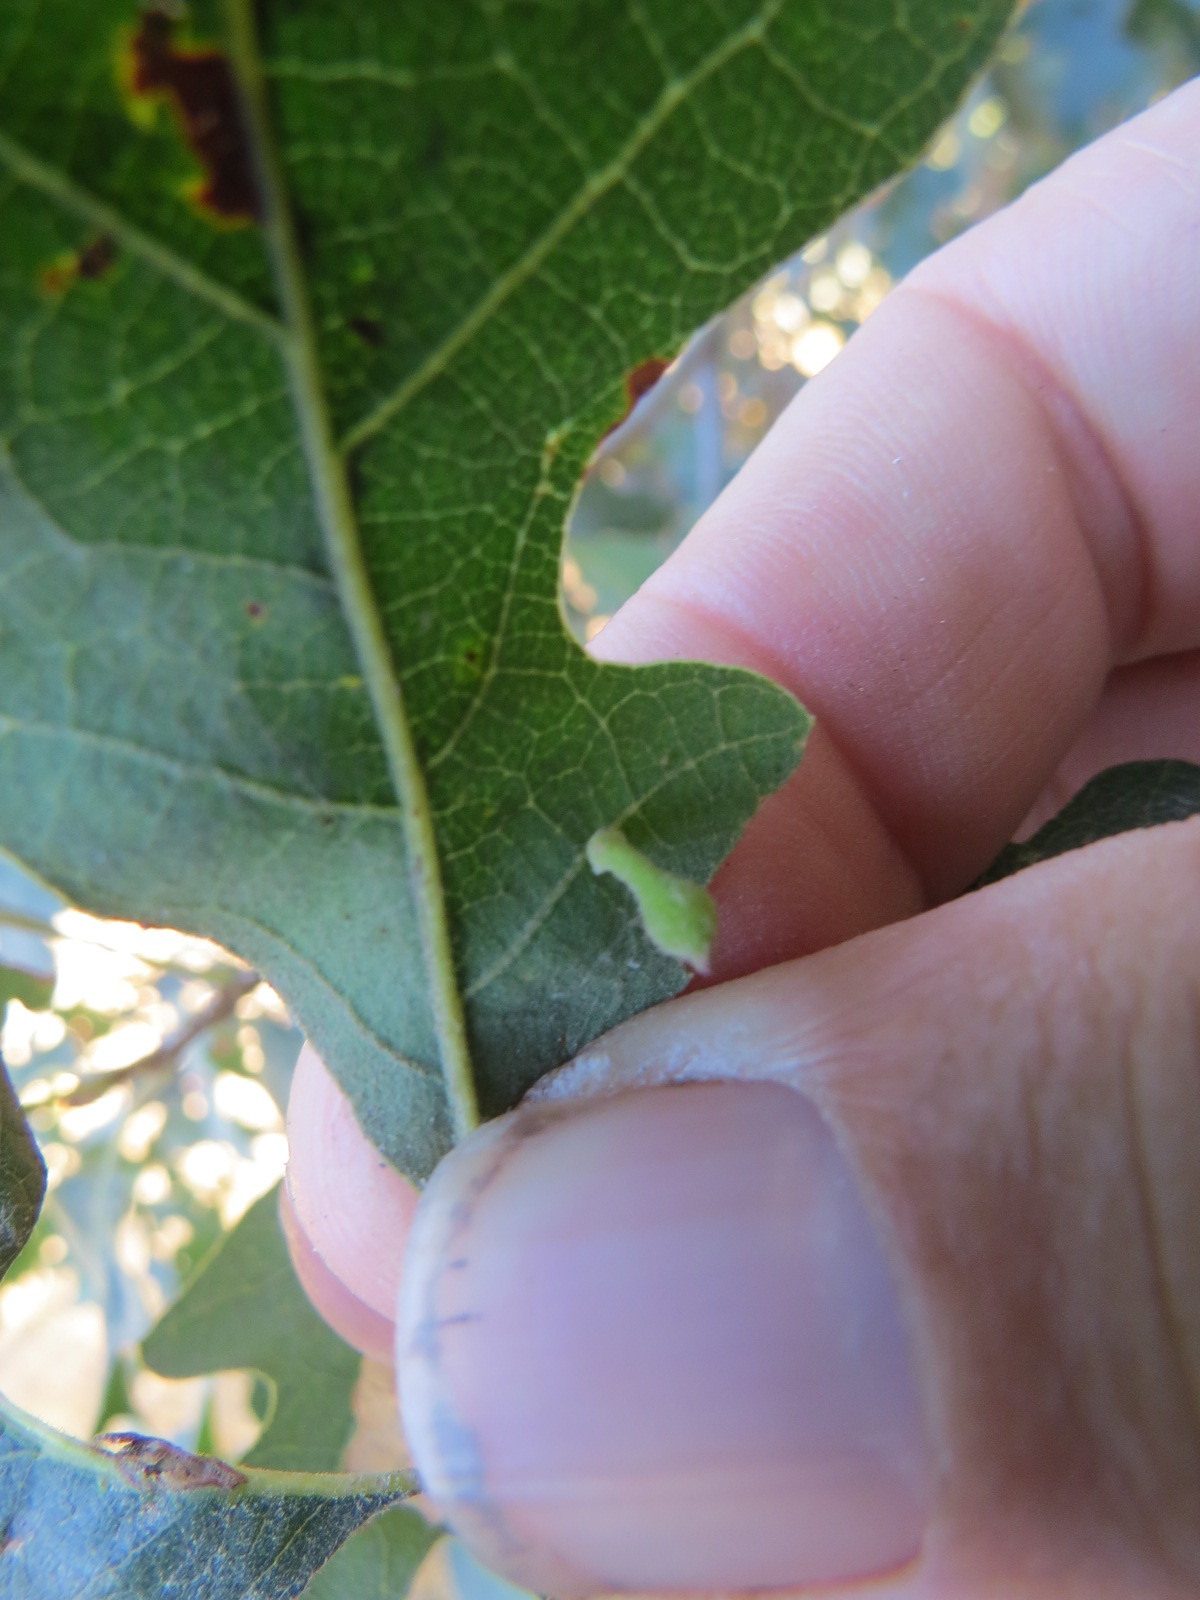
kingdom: Animalia
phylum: Arthropoda
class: Insecta
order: Hymenoptera
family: Cynipidae
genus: Atrusca
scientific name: Atrusca
